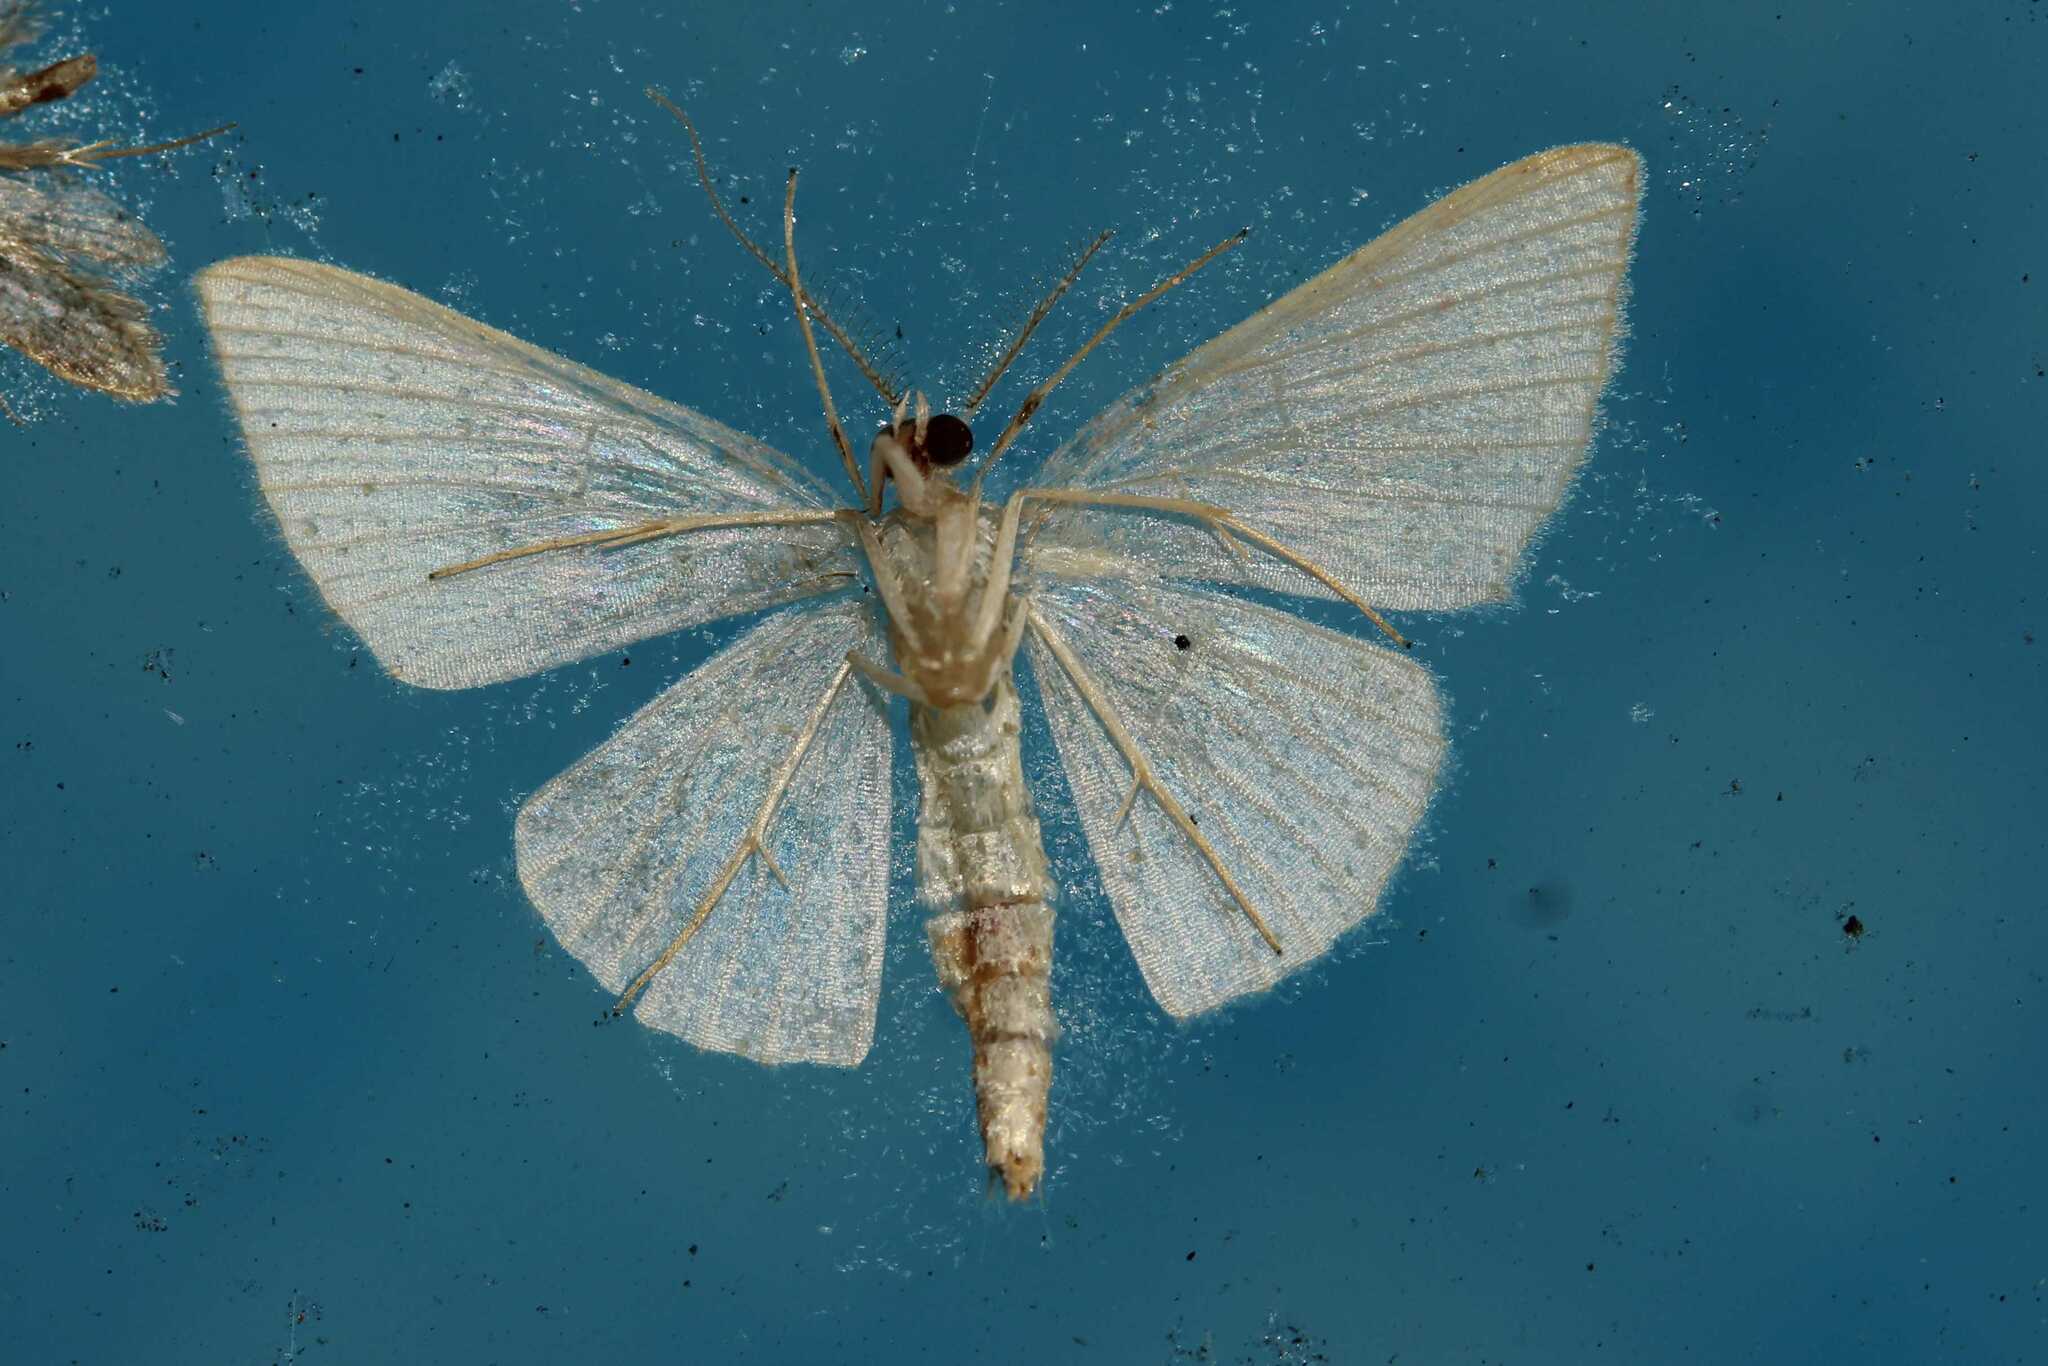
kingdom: Animalia
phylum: Arthropoda
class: Insecta
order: Lepidoptera
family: Geometridae
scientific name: Geometridae
